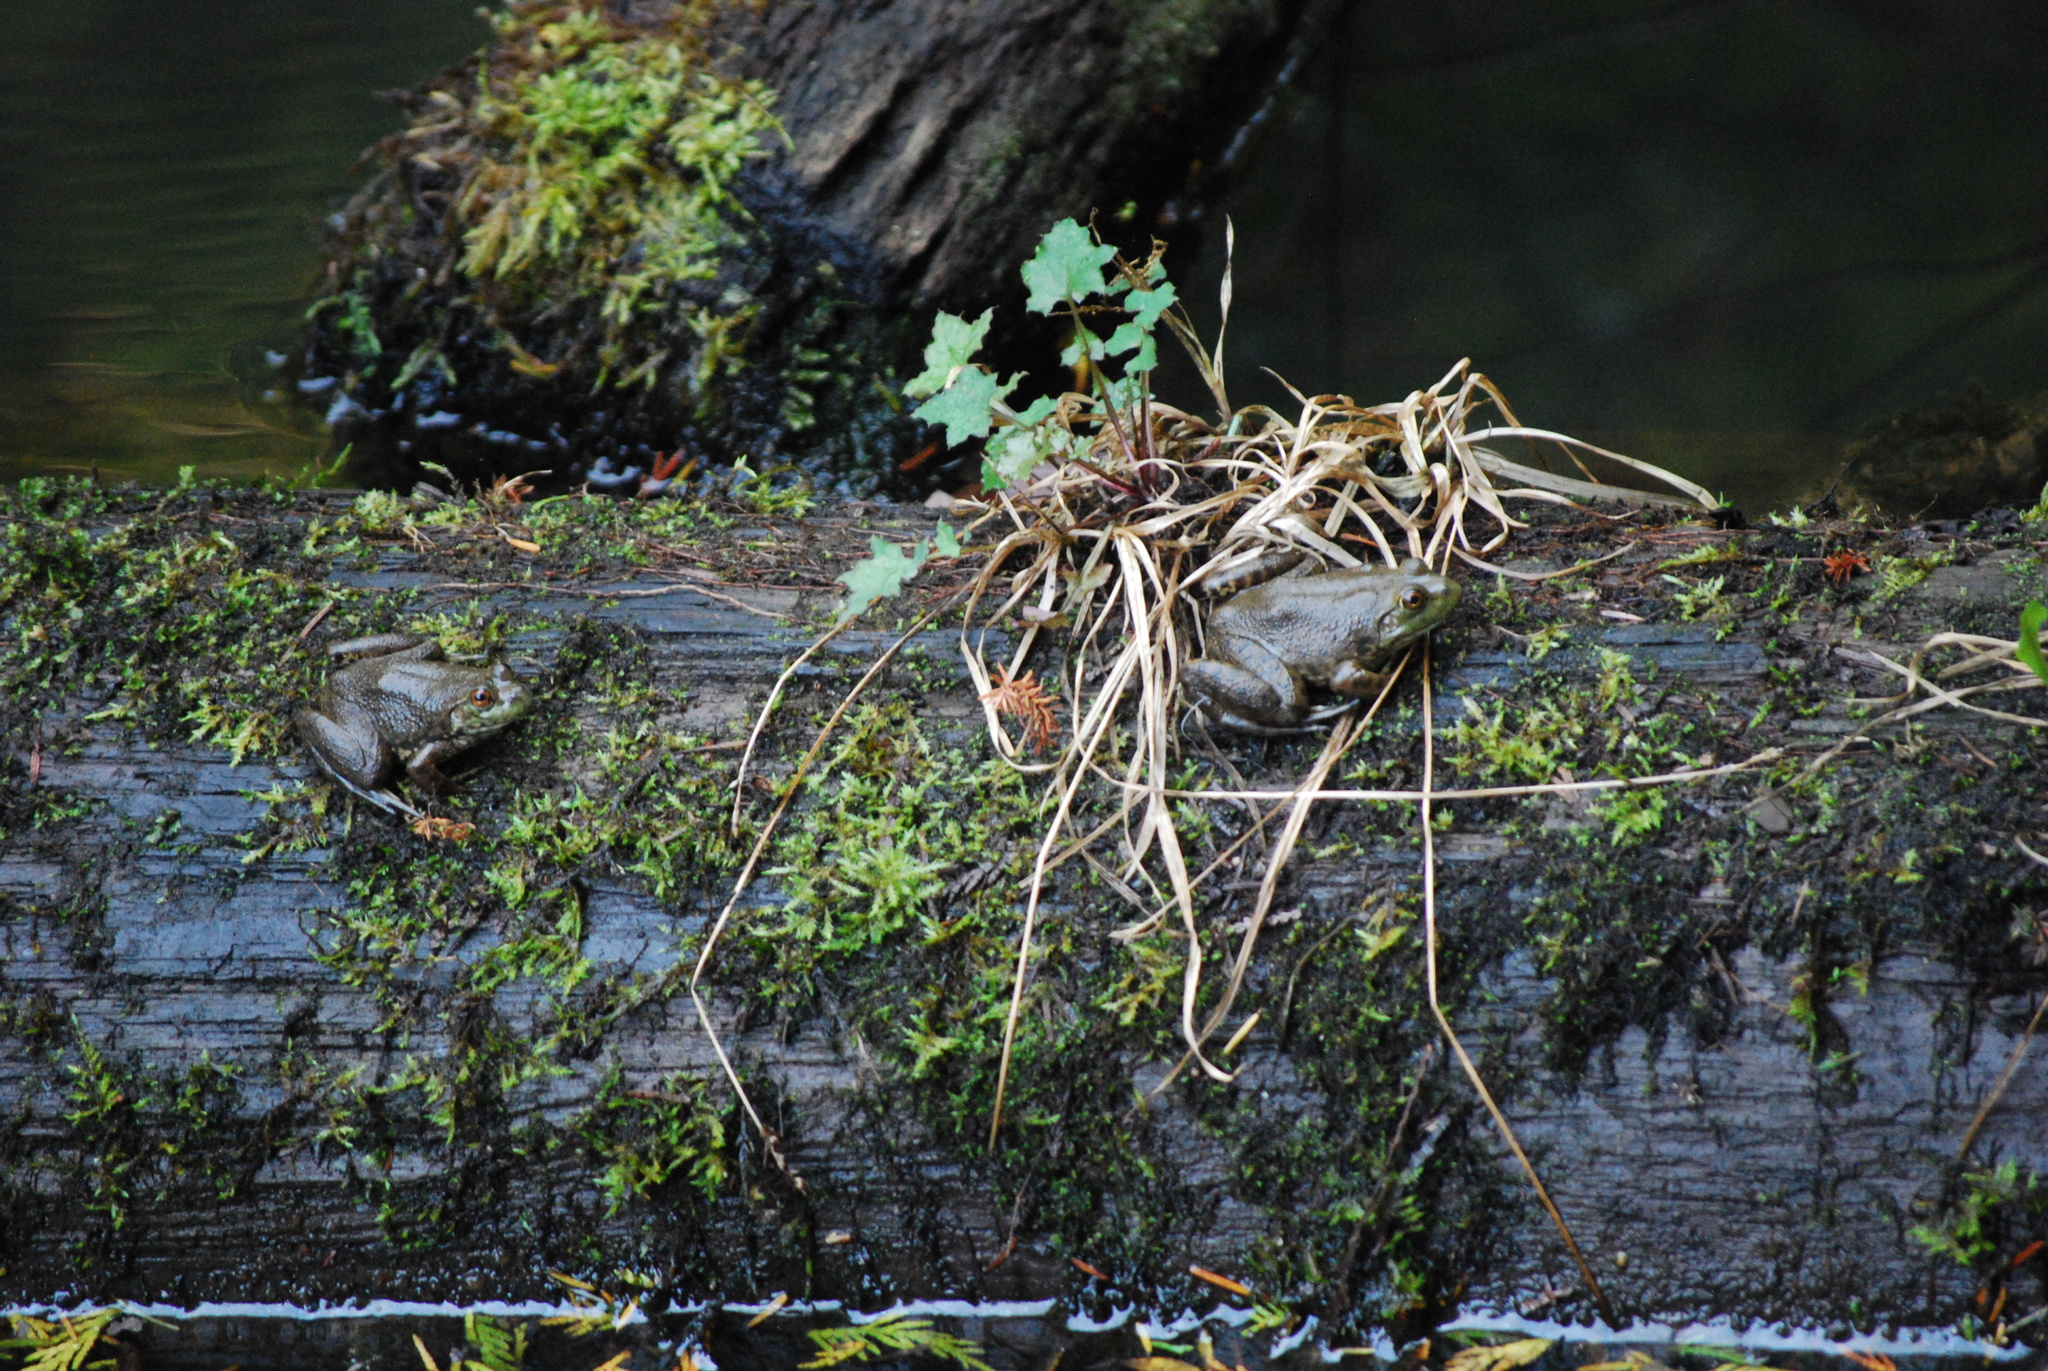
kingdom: Animalia
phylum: Chordata
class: Amphibia
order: Anura
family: Ranidae
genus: Lithobates
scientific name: Lithobates catesbeianus
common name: American bullfrog
